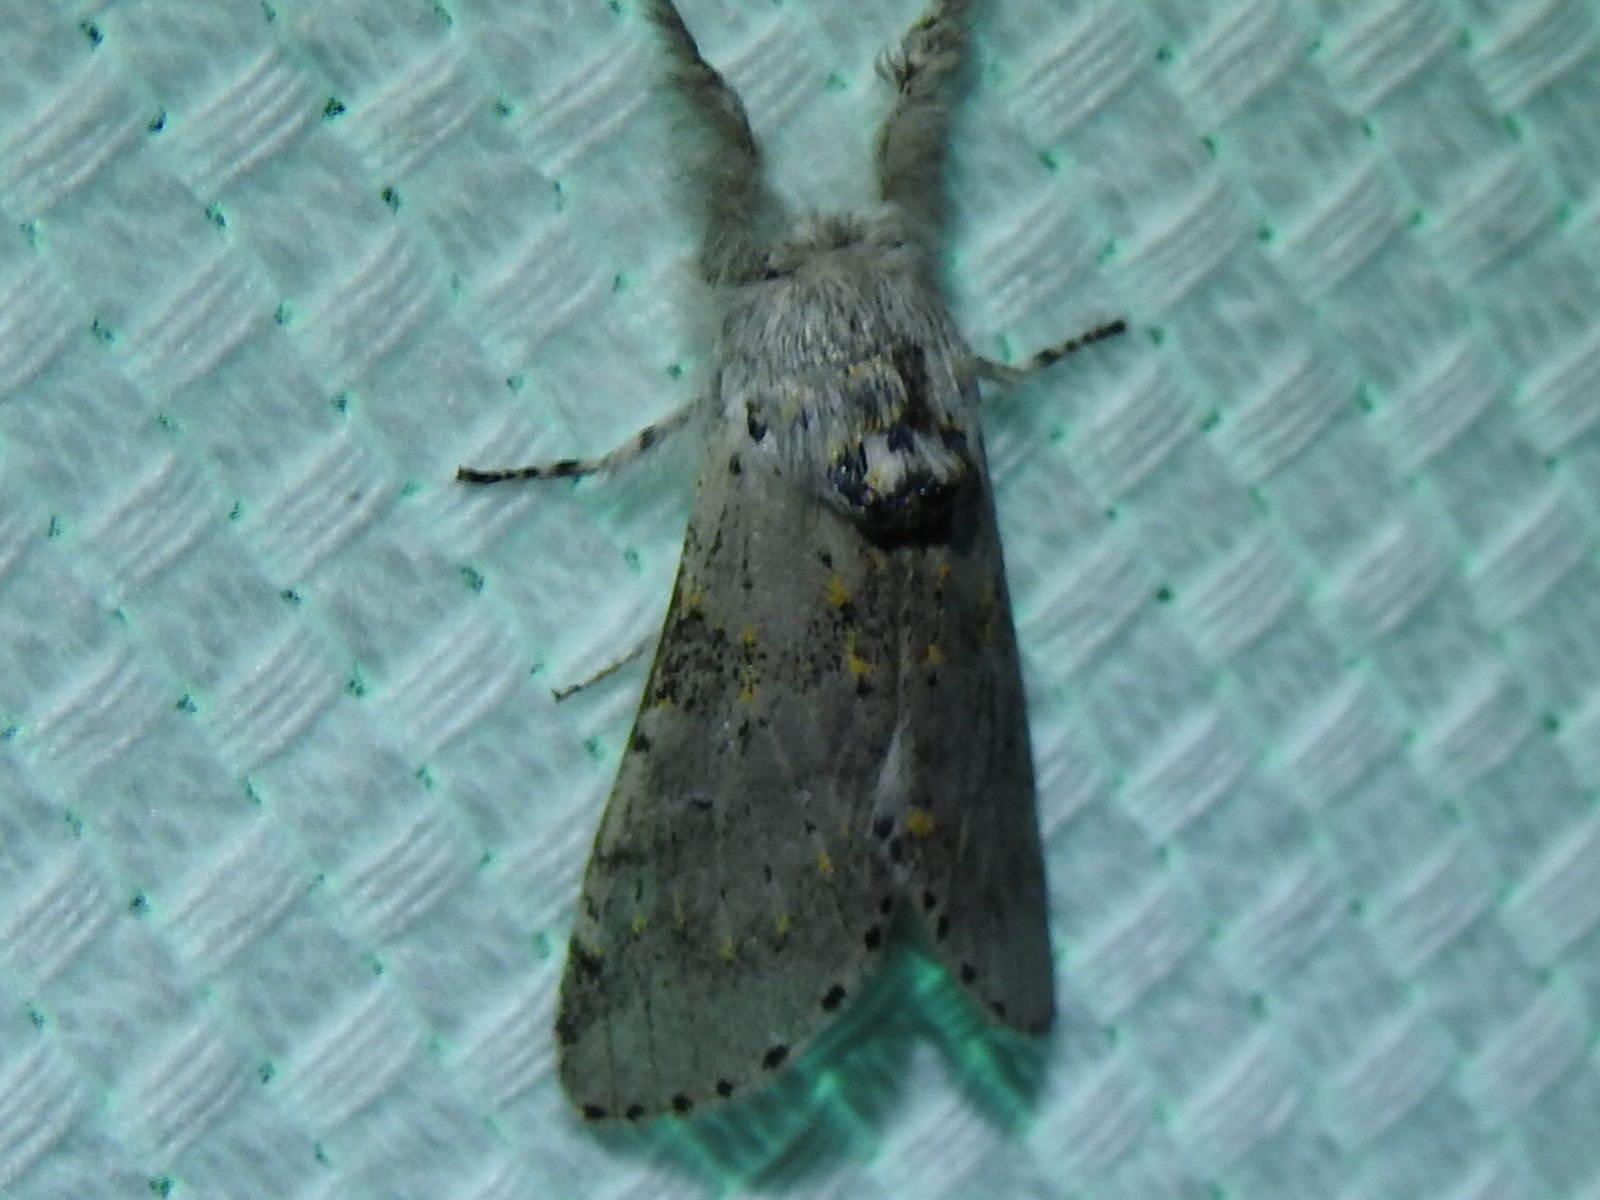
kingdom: Animalia
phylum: Arthropoda
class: Insecta
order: Lepidoptera
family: Notodontidae
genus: Furcula
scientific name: Furcula cinerea
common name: Gray furcula
